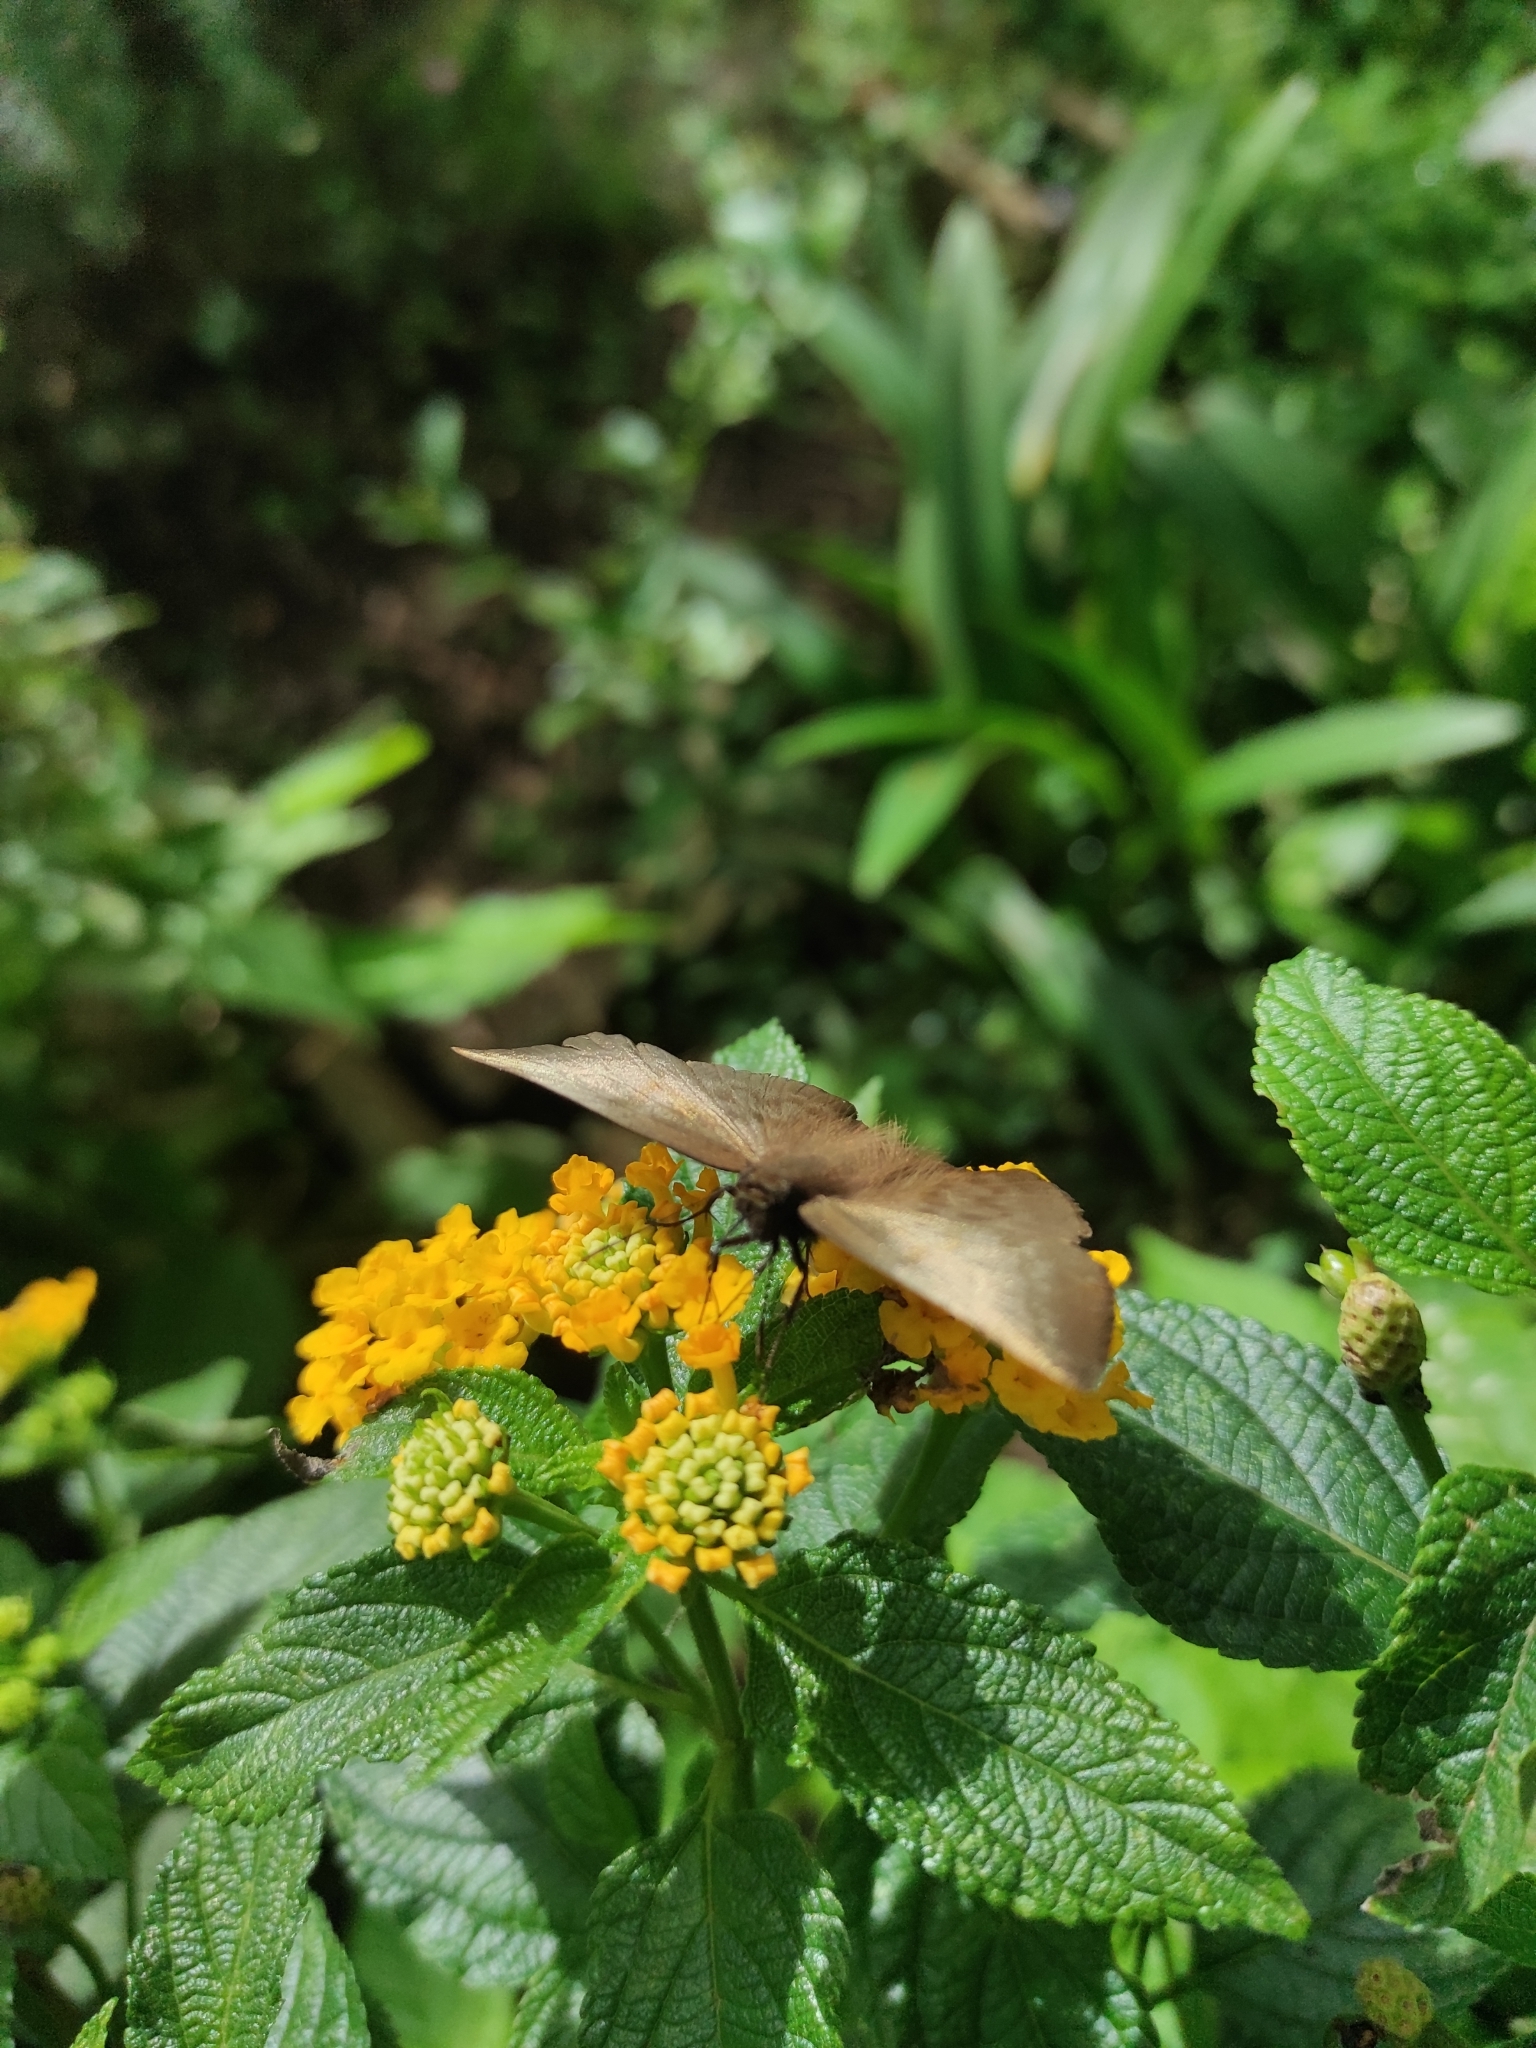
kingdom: Animalia
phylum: Arthropoda
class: Insecta
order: Lepidoptera
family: Hesperiidae
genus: Achlyodes
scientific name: Achlyodes pallida
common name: Pale sicklewing
